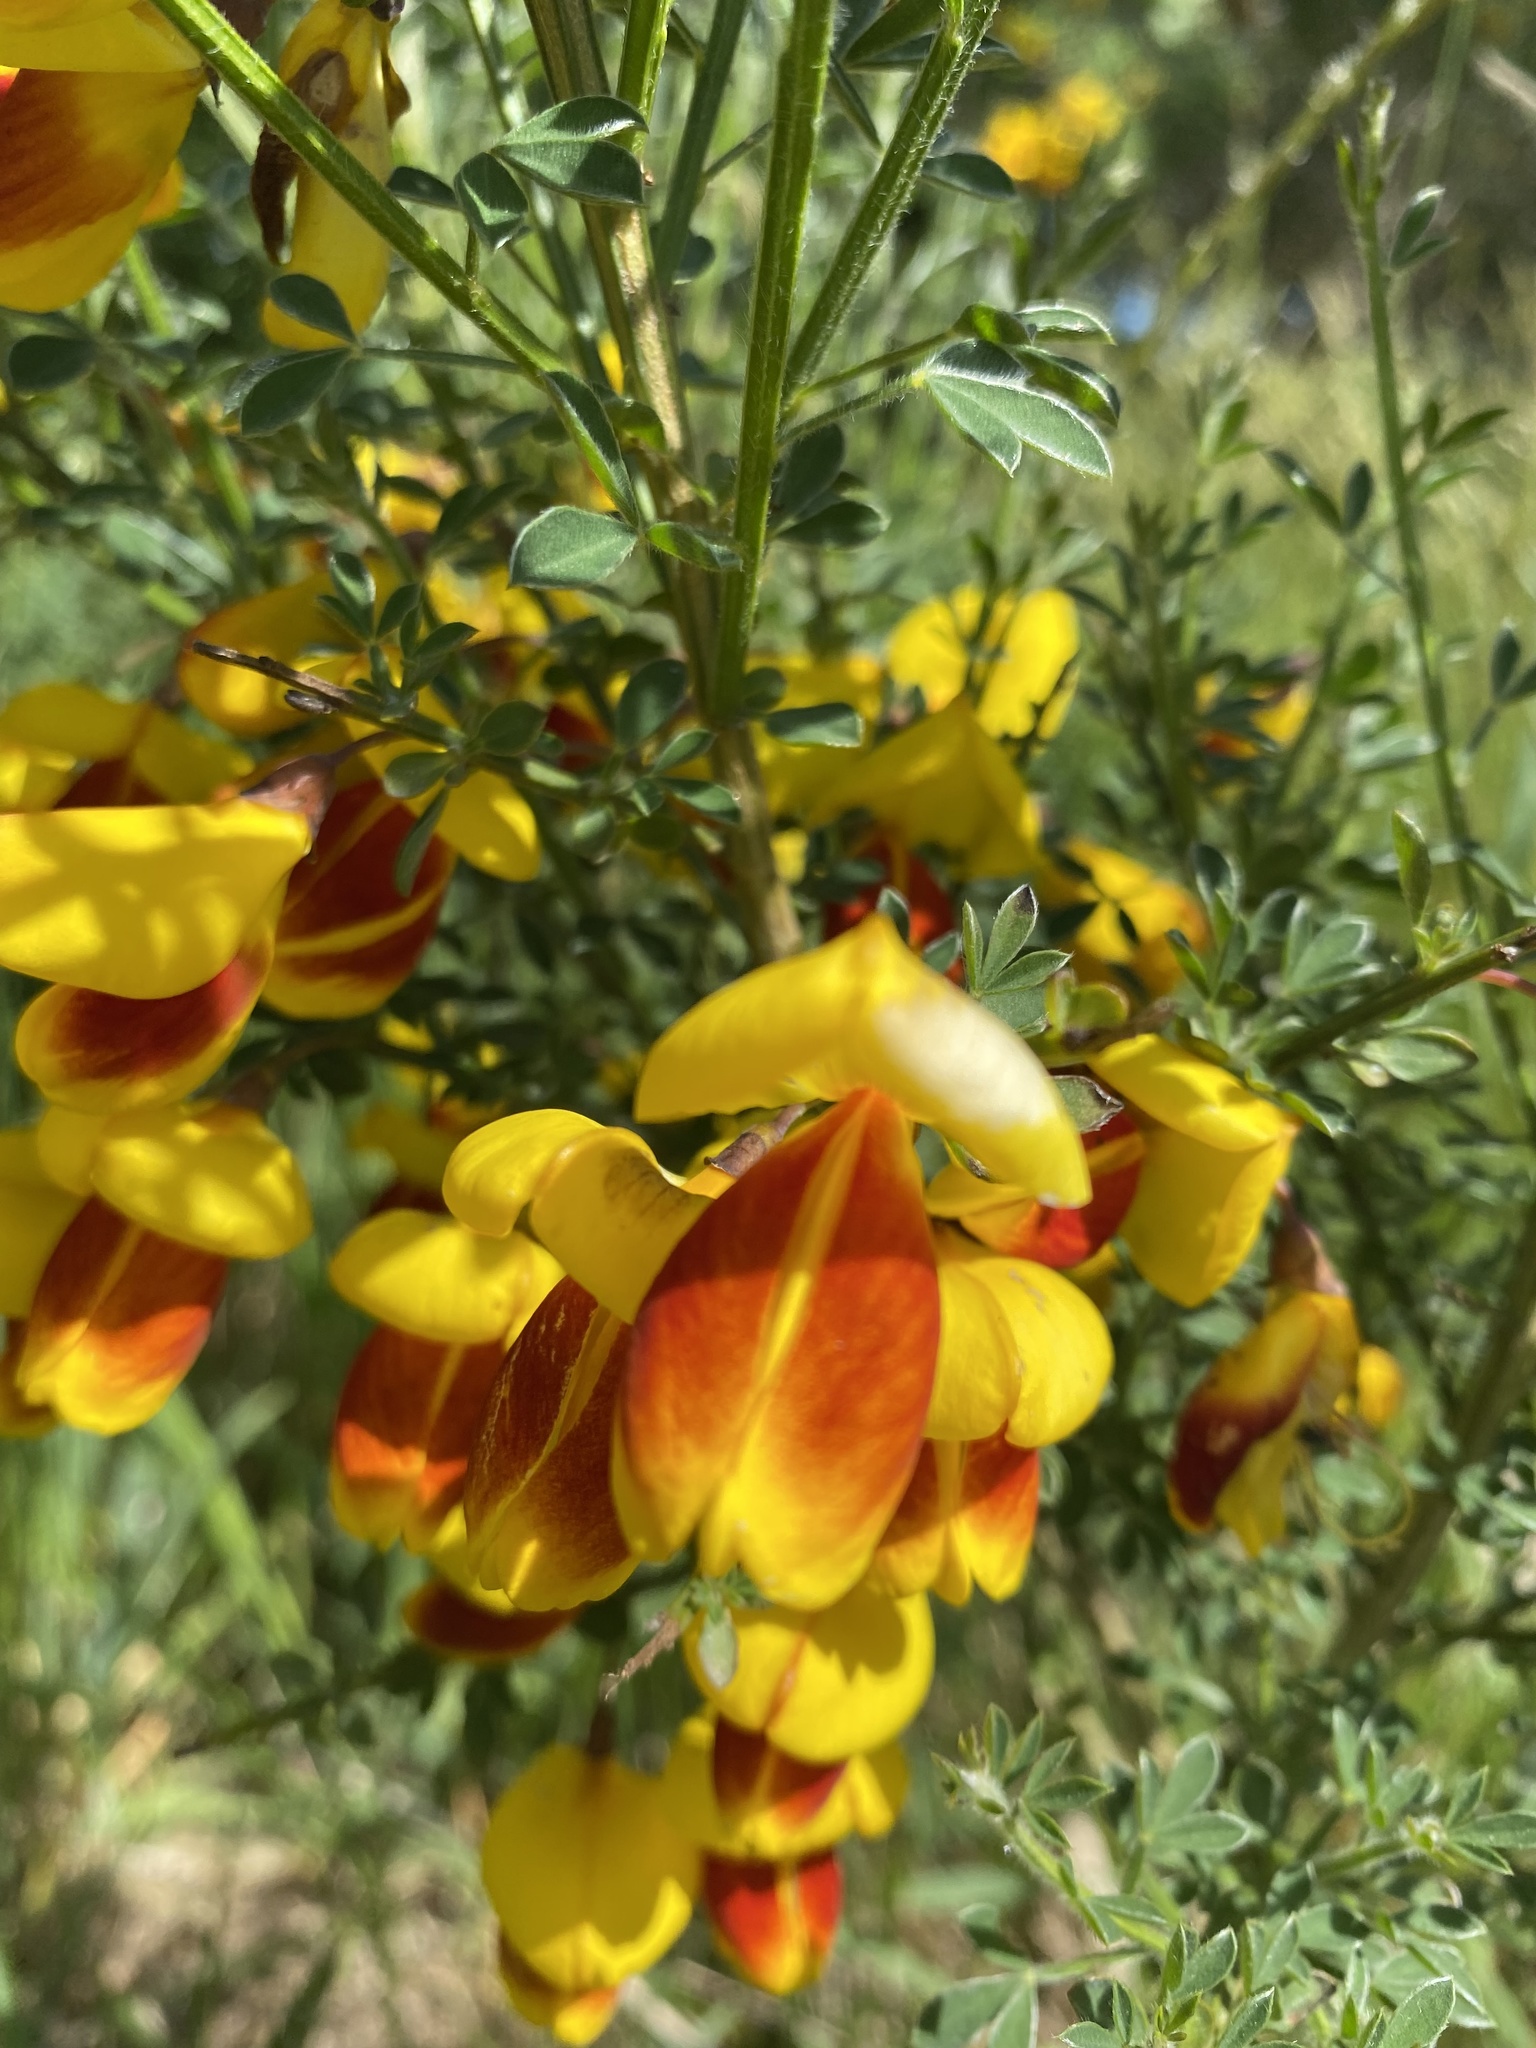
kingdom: Plantae
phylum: Tracheophyta
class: Magnoliopsida
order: Fabales
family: Fabaceae
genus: Cytisus
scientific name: Cytisus scoparius
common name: Scotch broom
